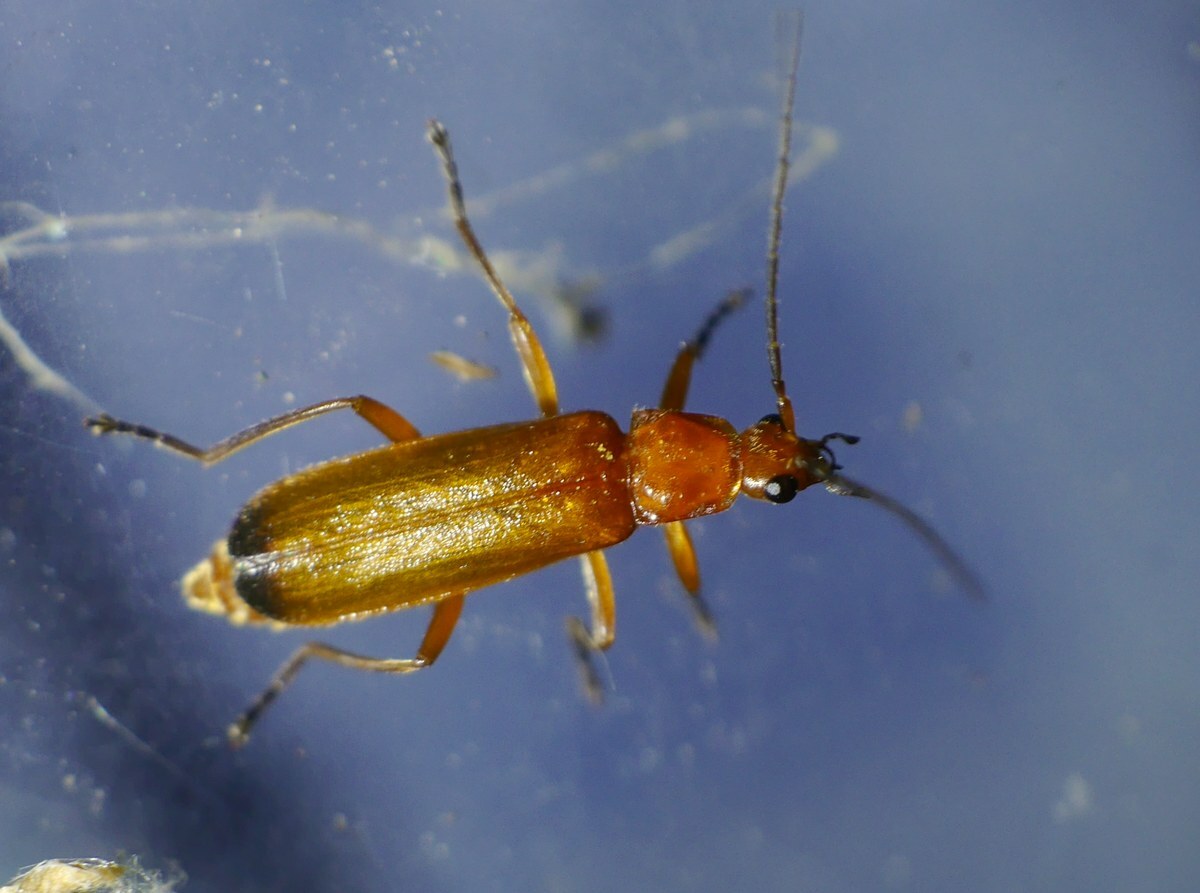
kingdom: Animalia
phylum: Arthropoda
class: Insecta
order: Coleoptera
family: Cantharidae
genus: Rhagonycha
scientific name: Rhagonycha fulva
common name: Common red soldier beetle
